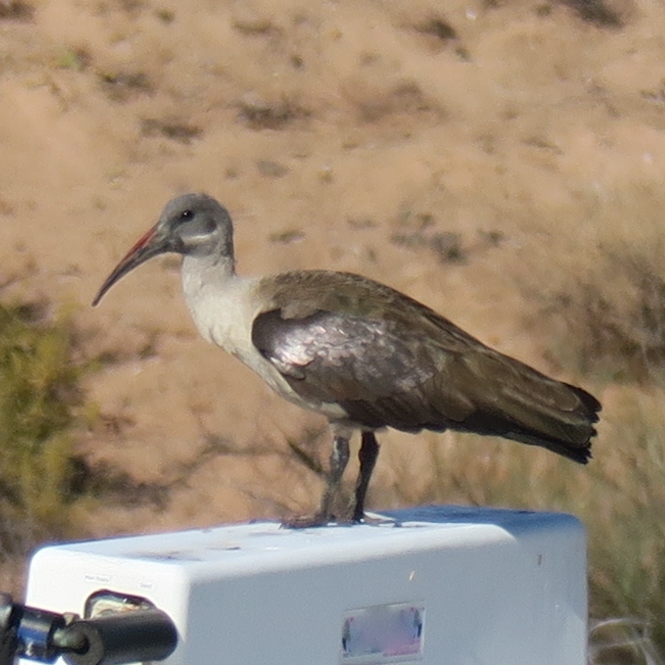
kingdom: Animalia
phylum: Chordata
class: Aves
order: Pelecaniformes
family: Threskiornithidae
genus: Bostrychia
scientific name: Bostrychia hagedash
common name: Hadada ibis
